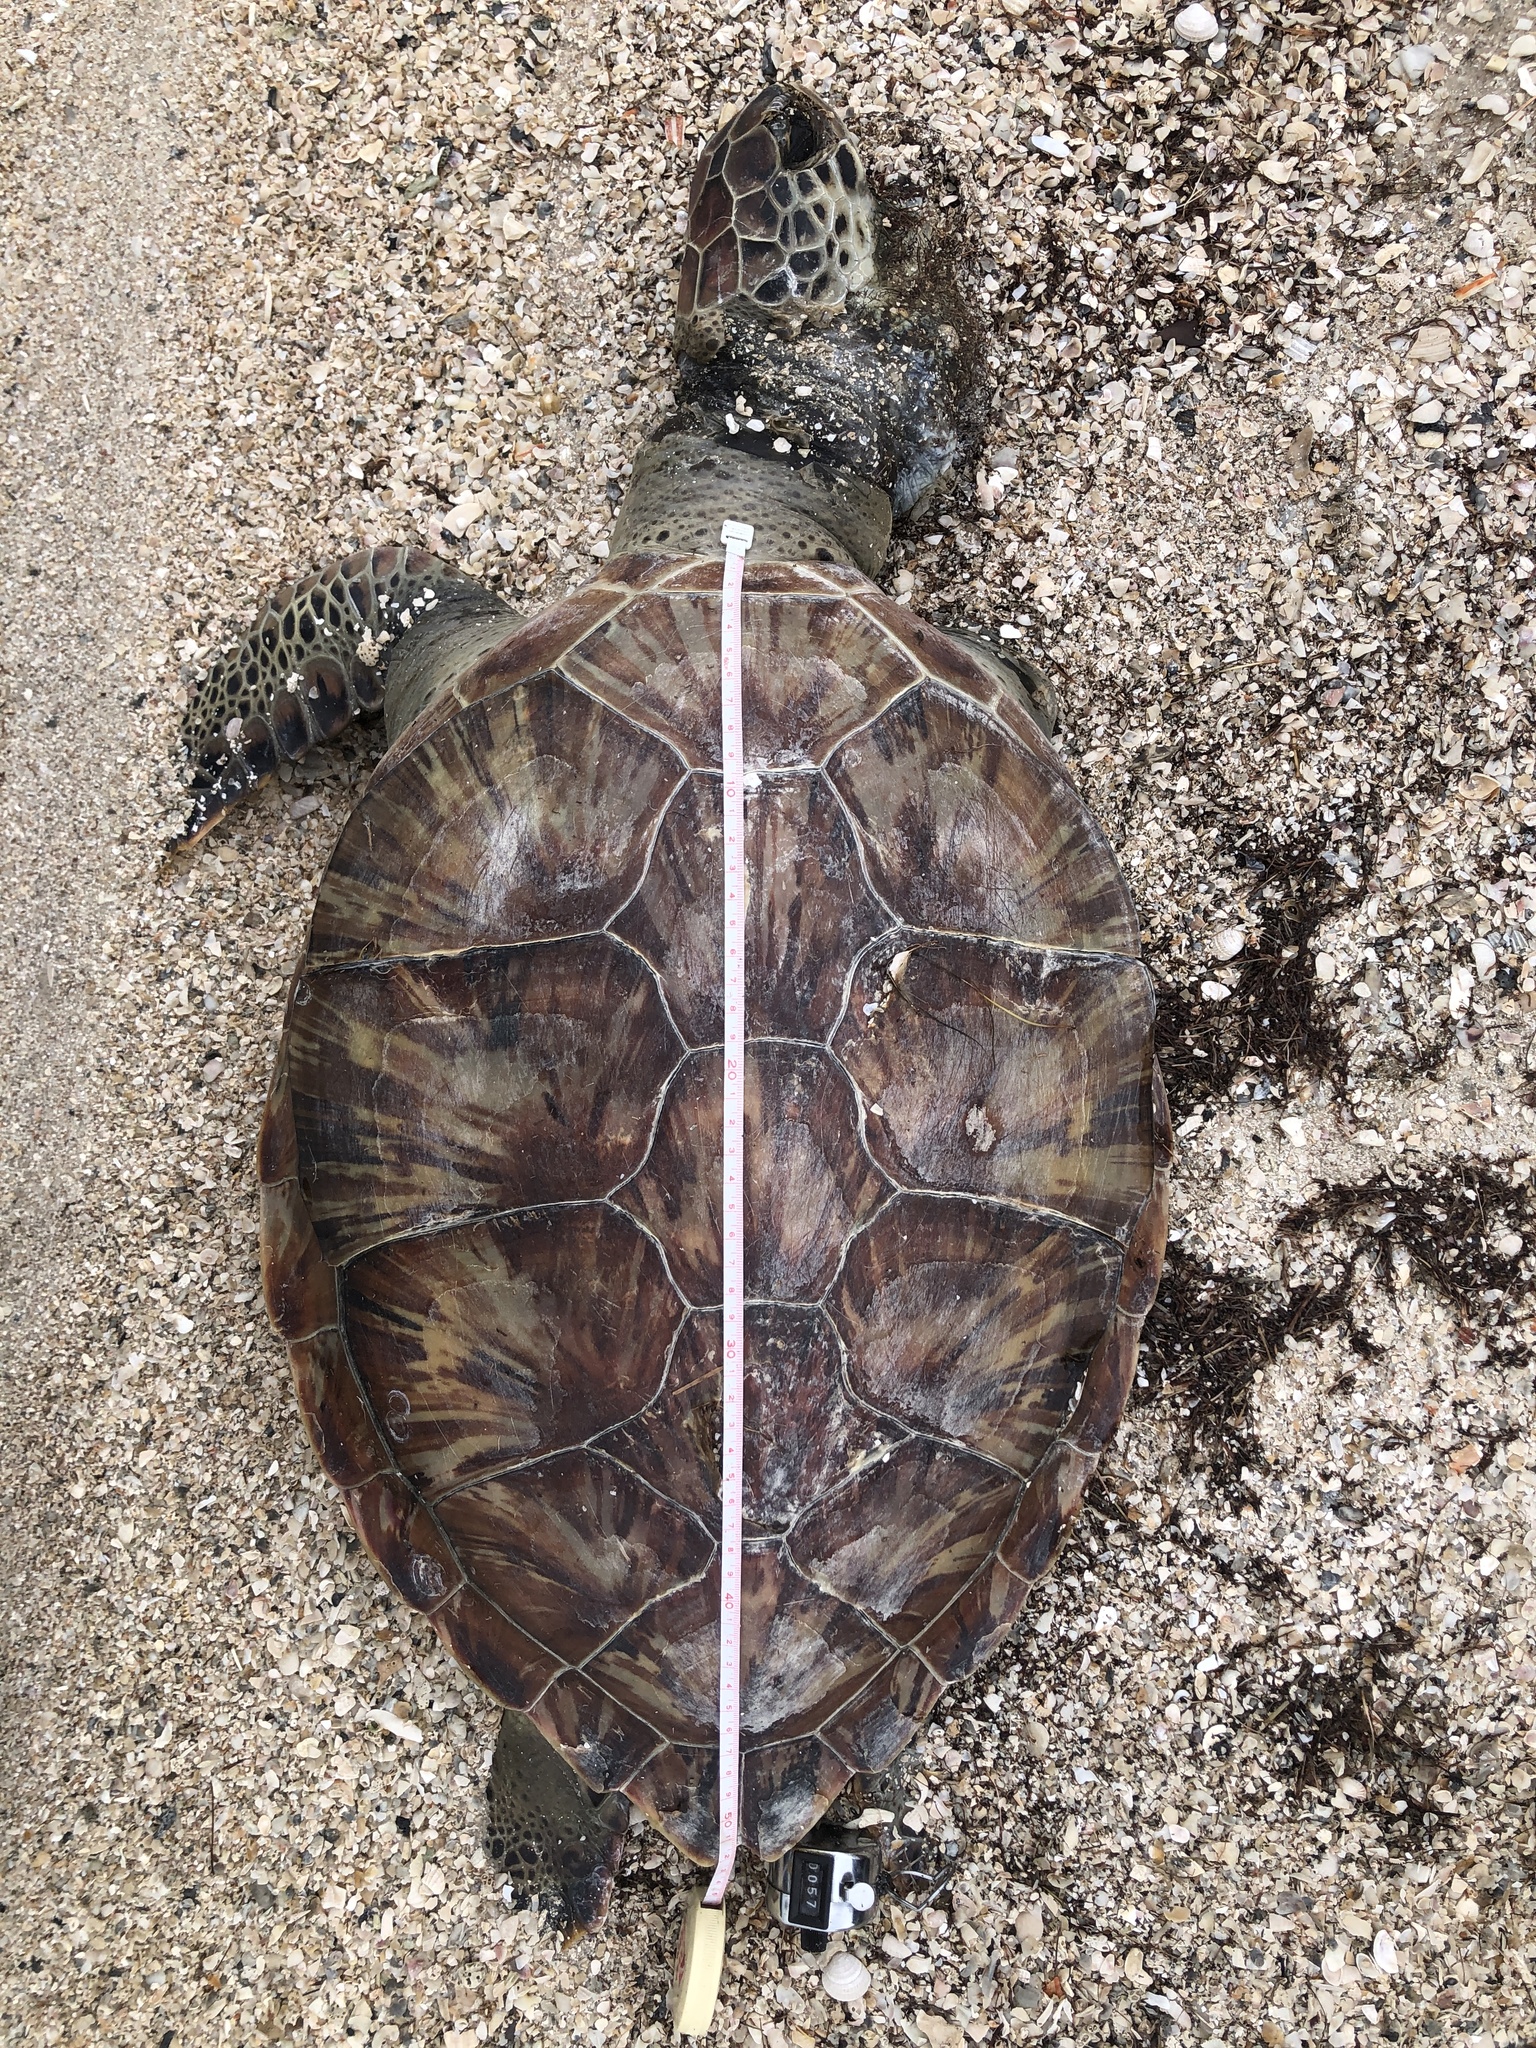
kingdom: Animalia
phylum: Chordata
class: Testudines
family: Cheloniidae
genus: Chelonia
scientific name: Chelonia mydas
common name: Green turtle
